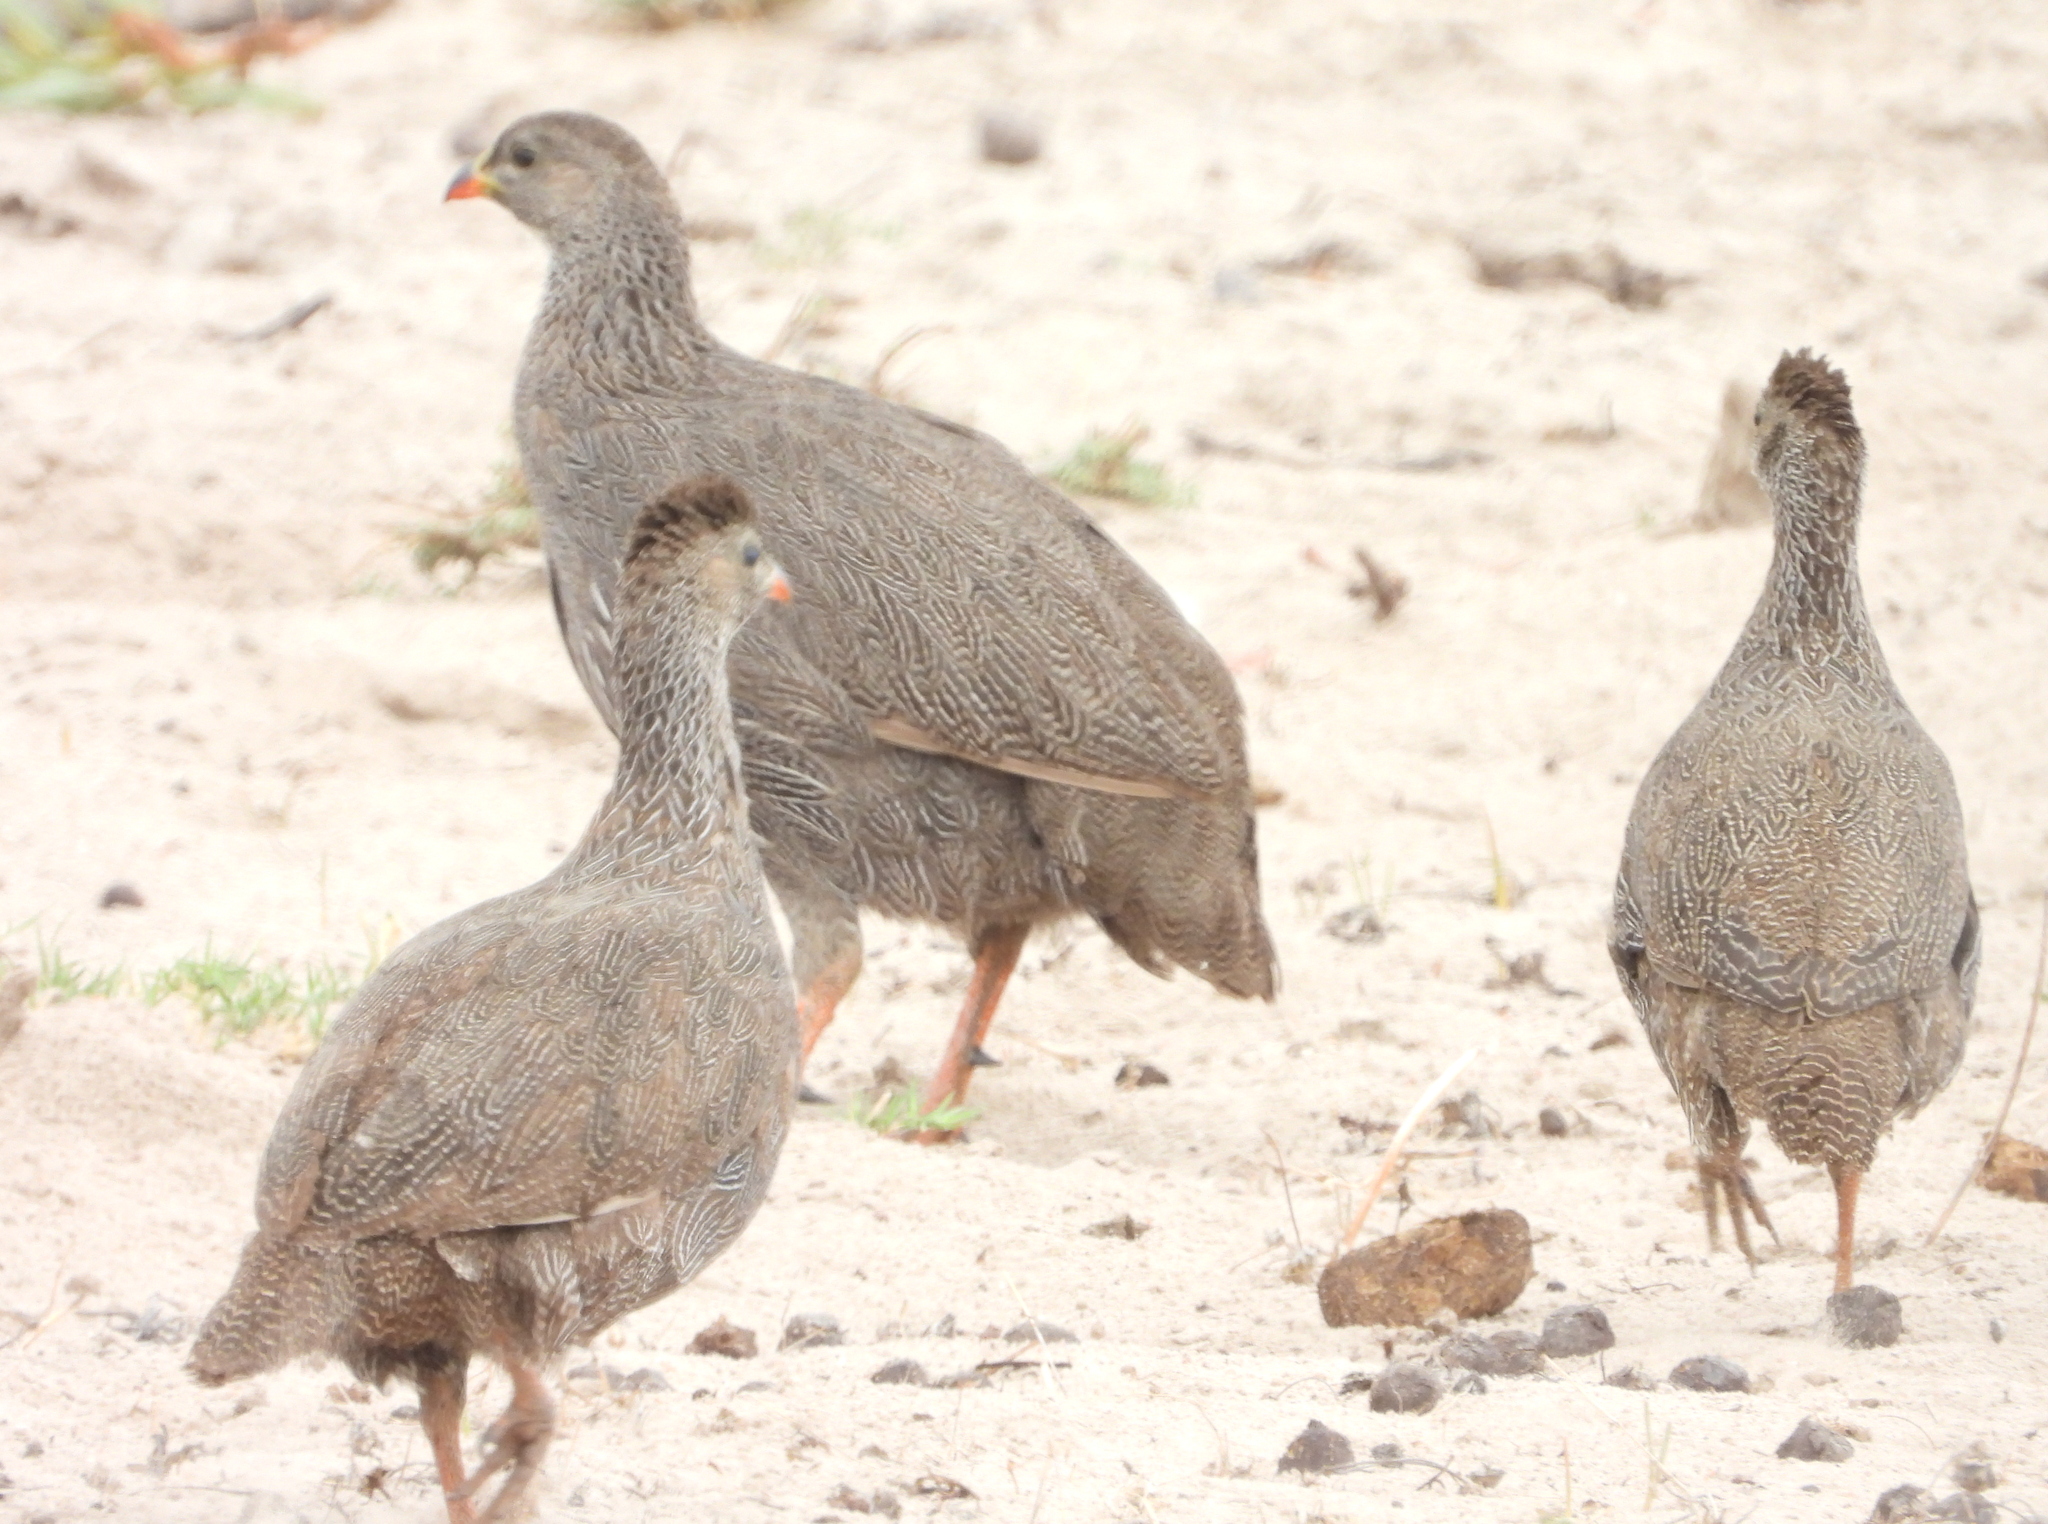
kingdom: Animalia
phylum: Chordata
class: Aves
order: Galliformes
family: Phasianidae
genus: Pternistis
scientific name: Pternistis capensis
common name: Cape spurfowl
